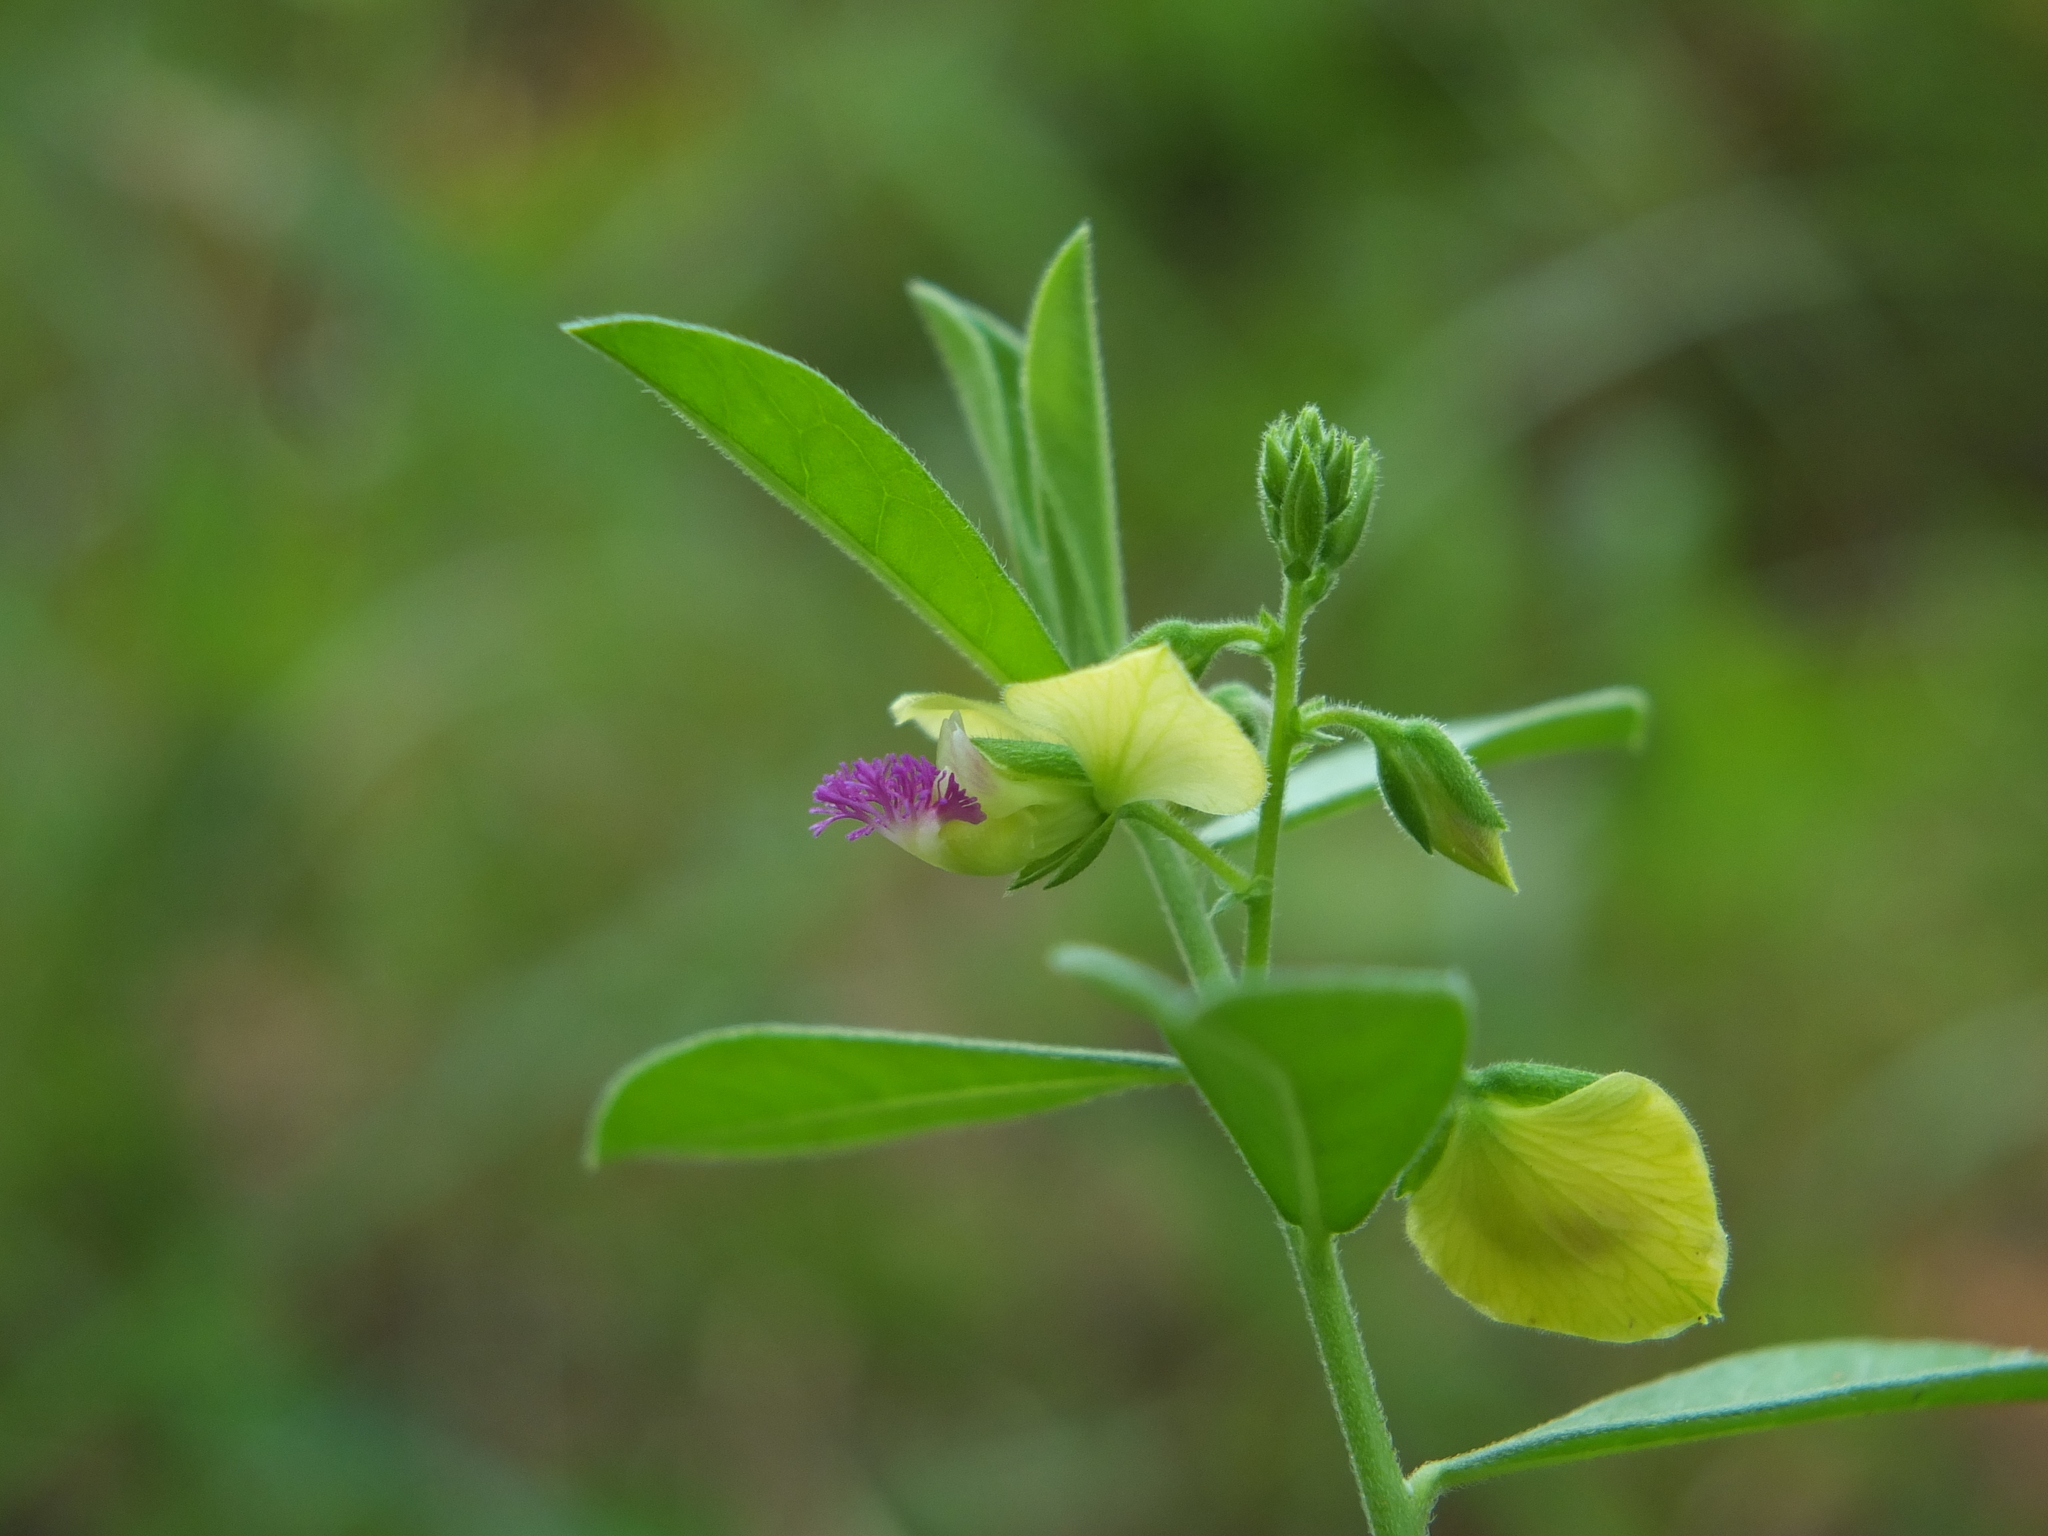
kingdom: Plantae
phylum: Tracheophyta
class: Magnoliopsida
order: Fabales
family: Polygalaceae
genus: Polygala
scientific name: Polygala javana
